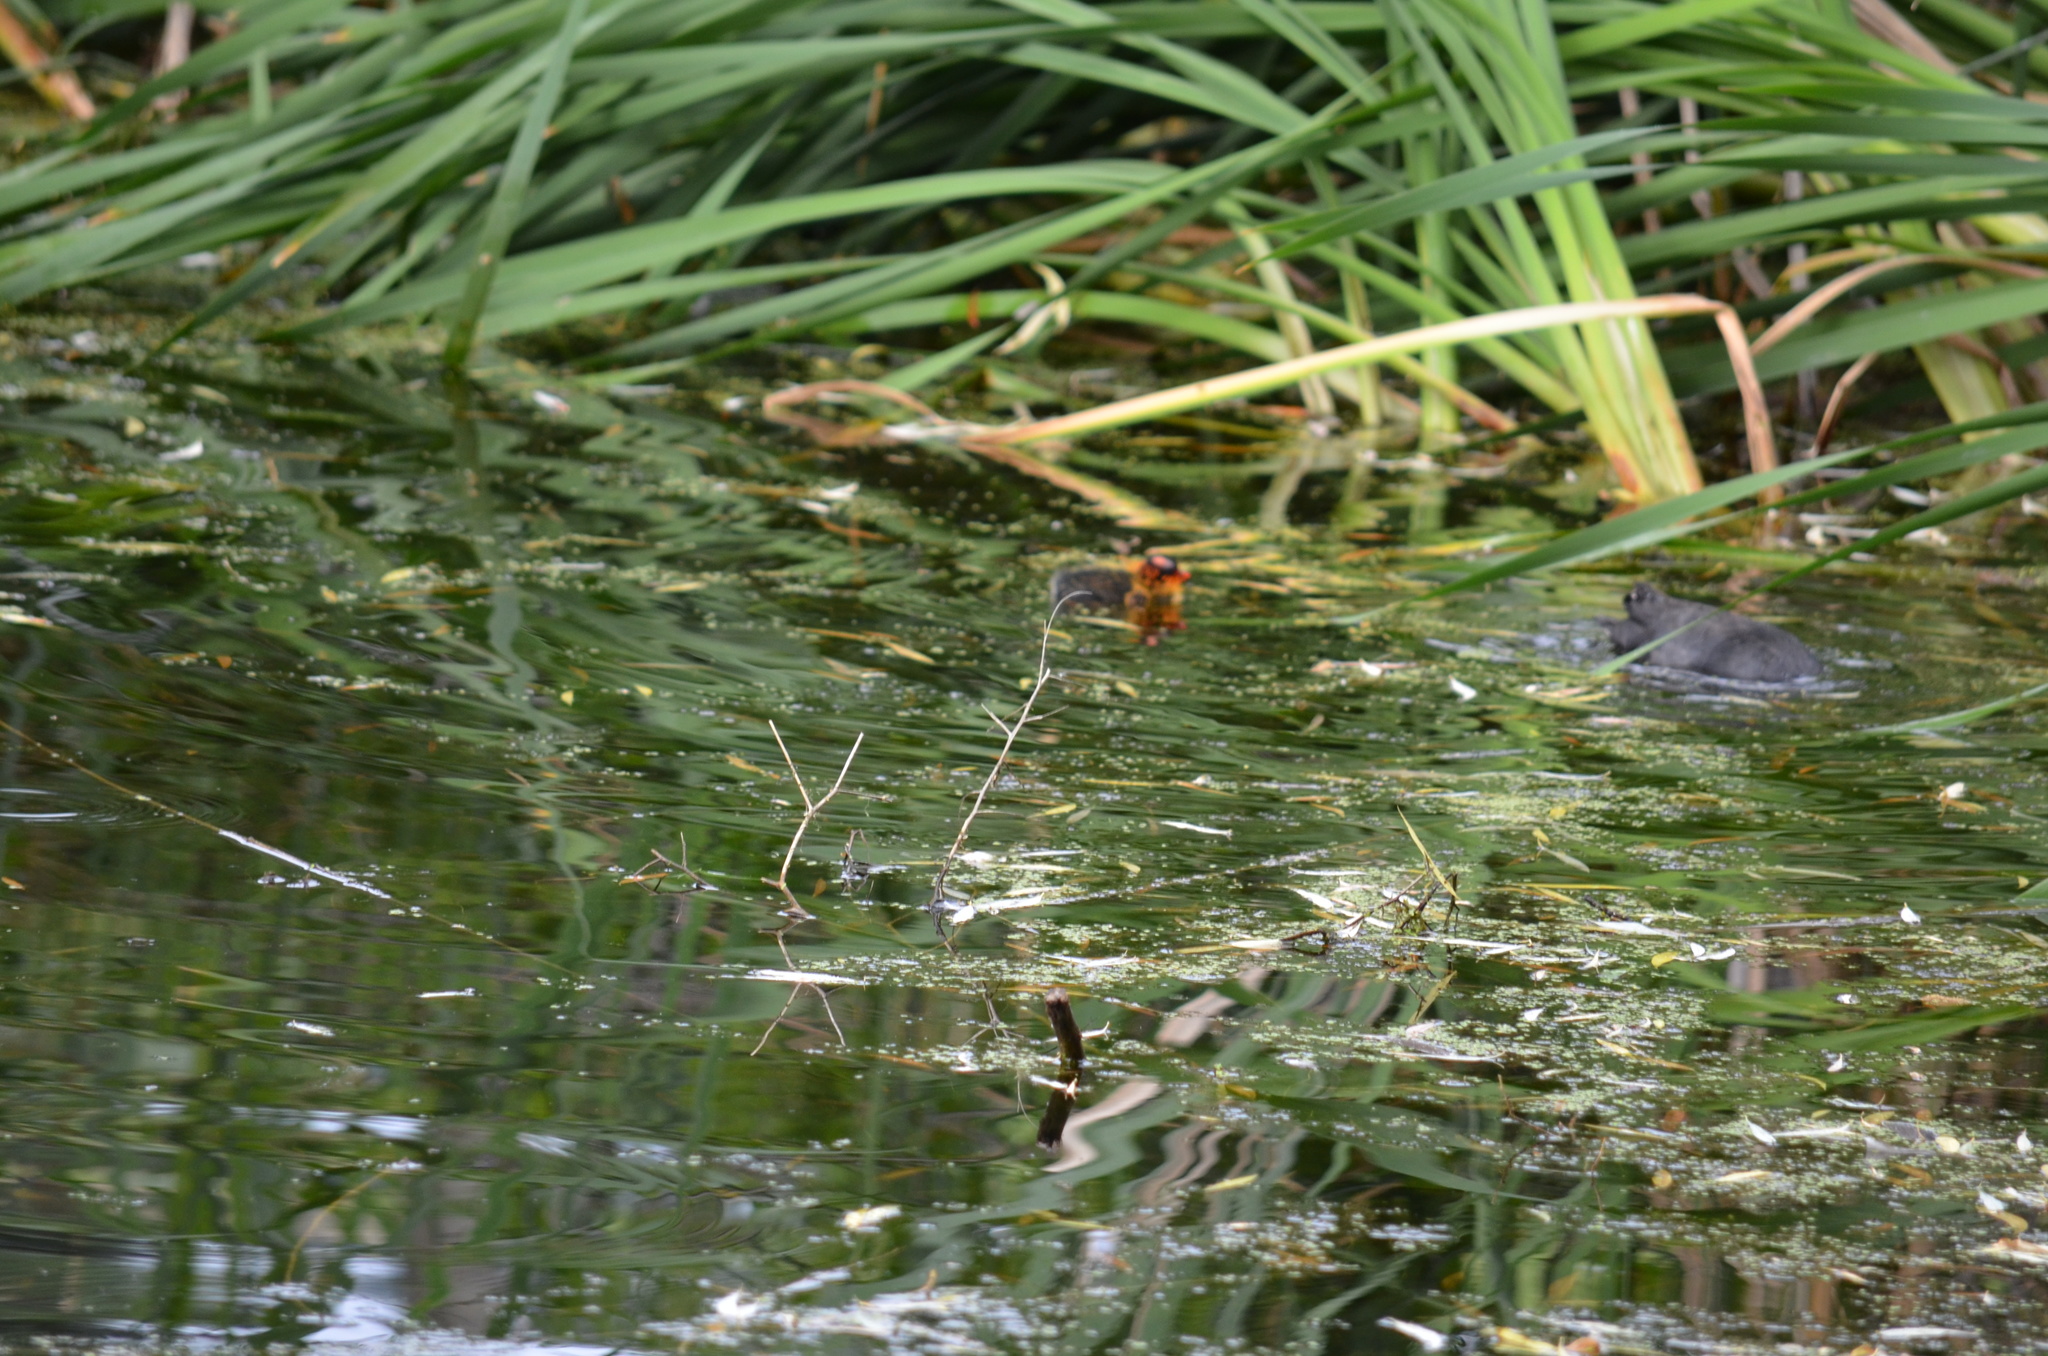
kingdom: Animalia
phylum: Chordata
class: Aves
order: Gruiformes
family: Rallidae
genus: Fulica
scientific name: Fulica americana
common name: American coot
